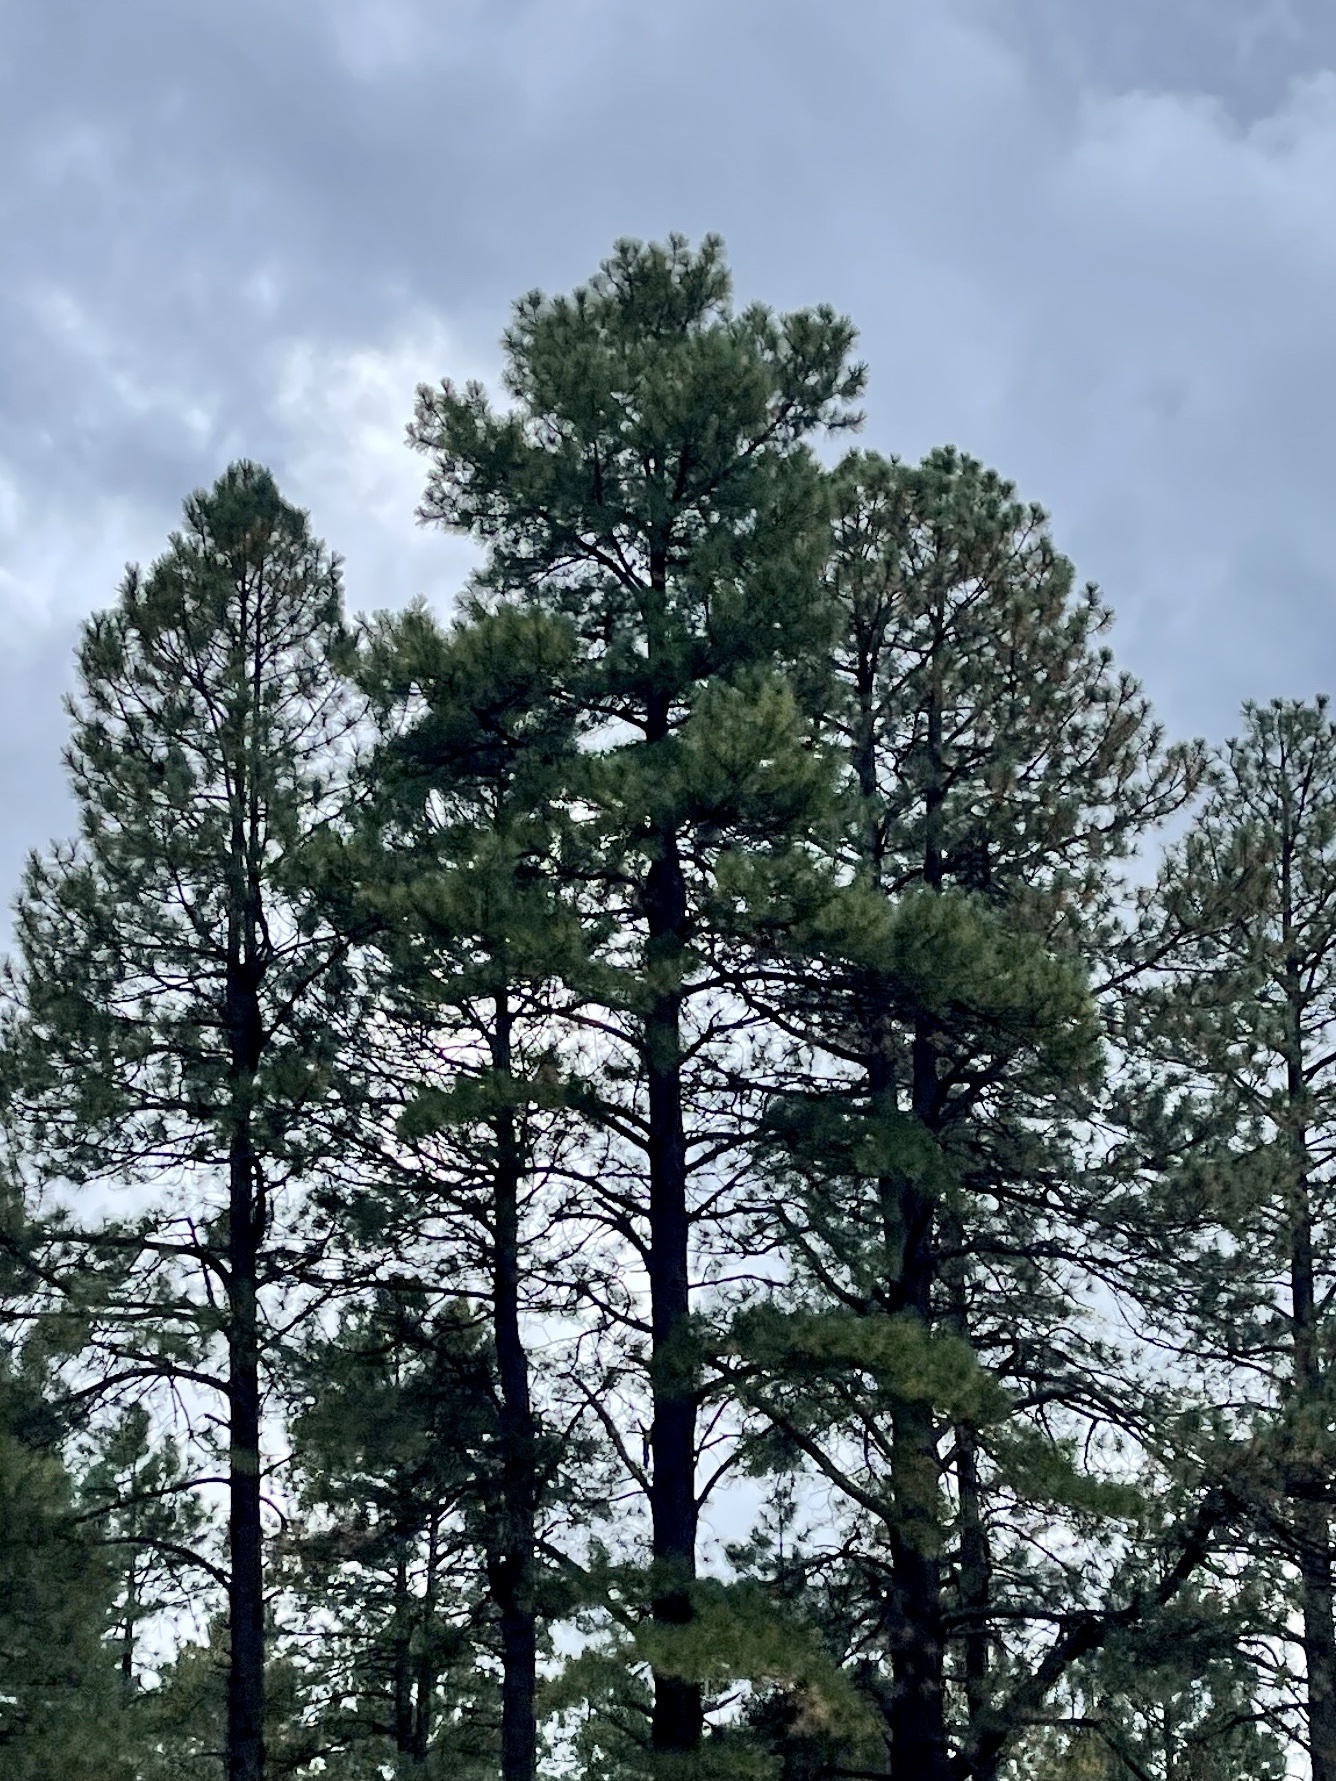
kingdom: Plantae
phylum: Tracheophyta
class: Pinopsida
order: Pinales
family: Pinaceae
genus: Pinus
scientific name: Pinus ponderosa
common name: Western yellow-pine
